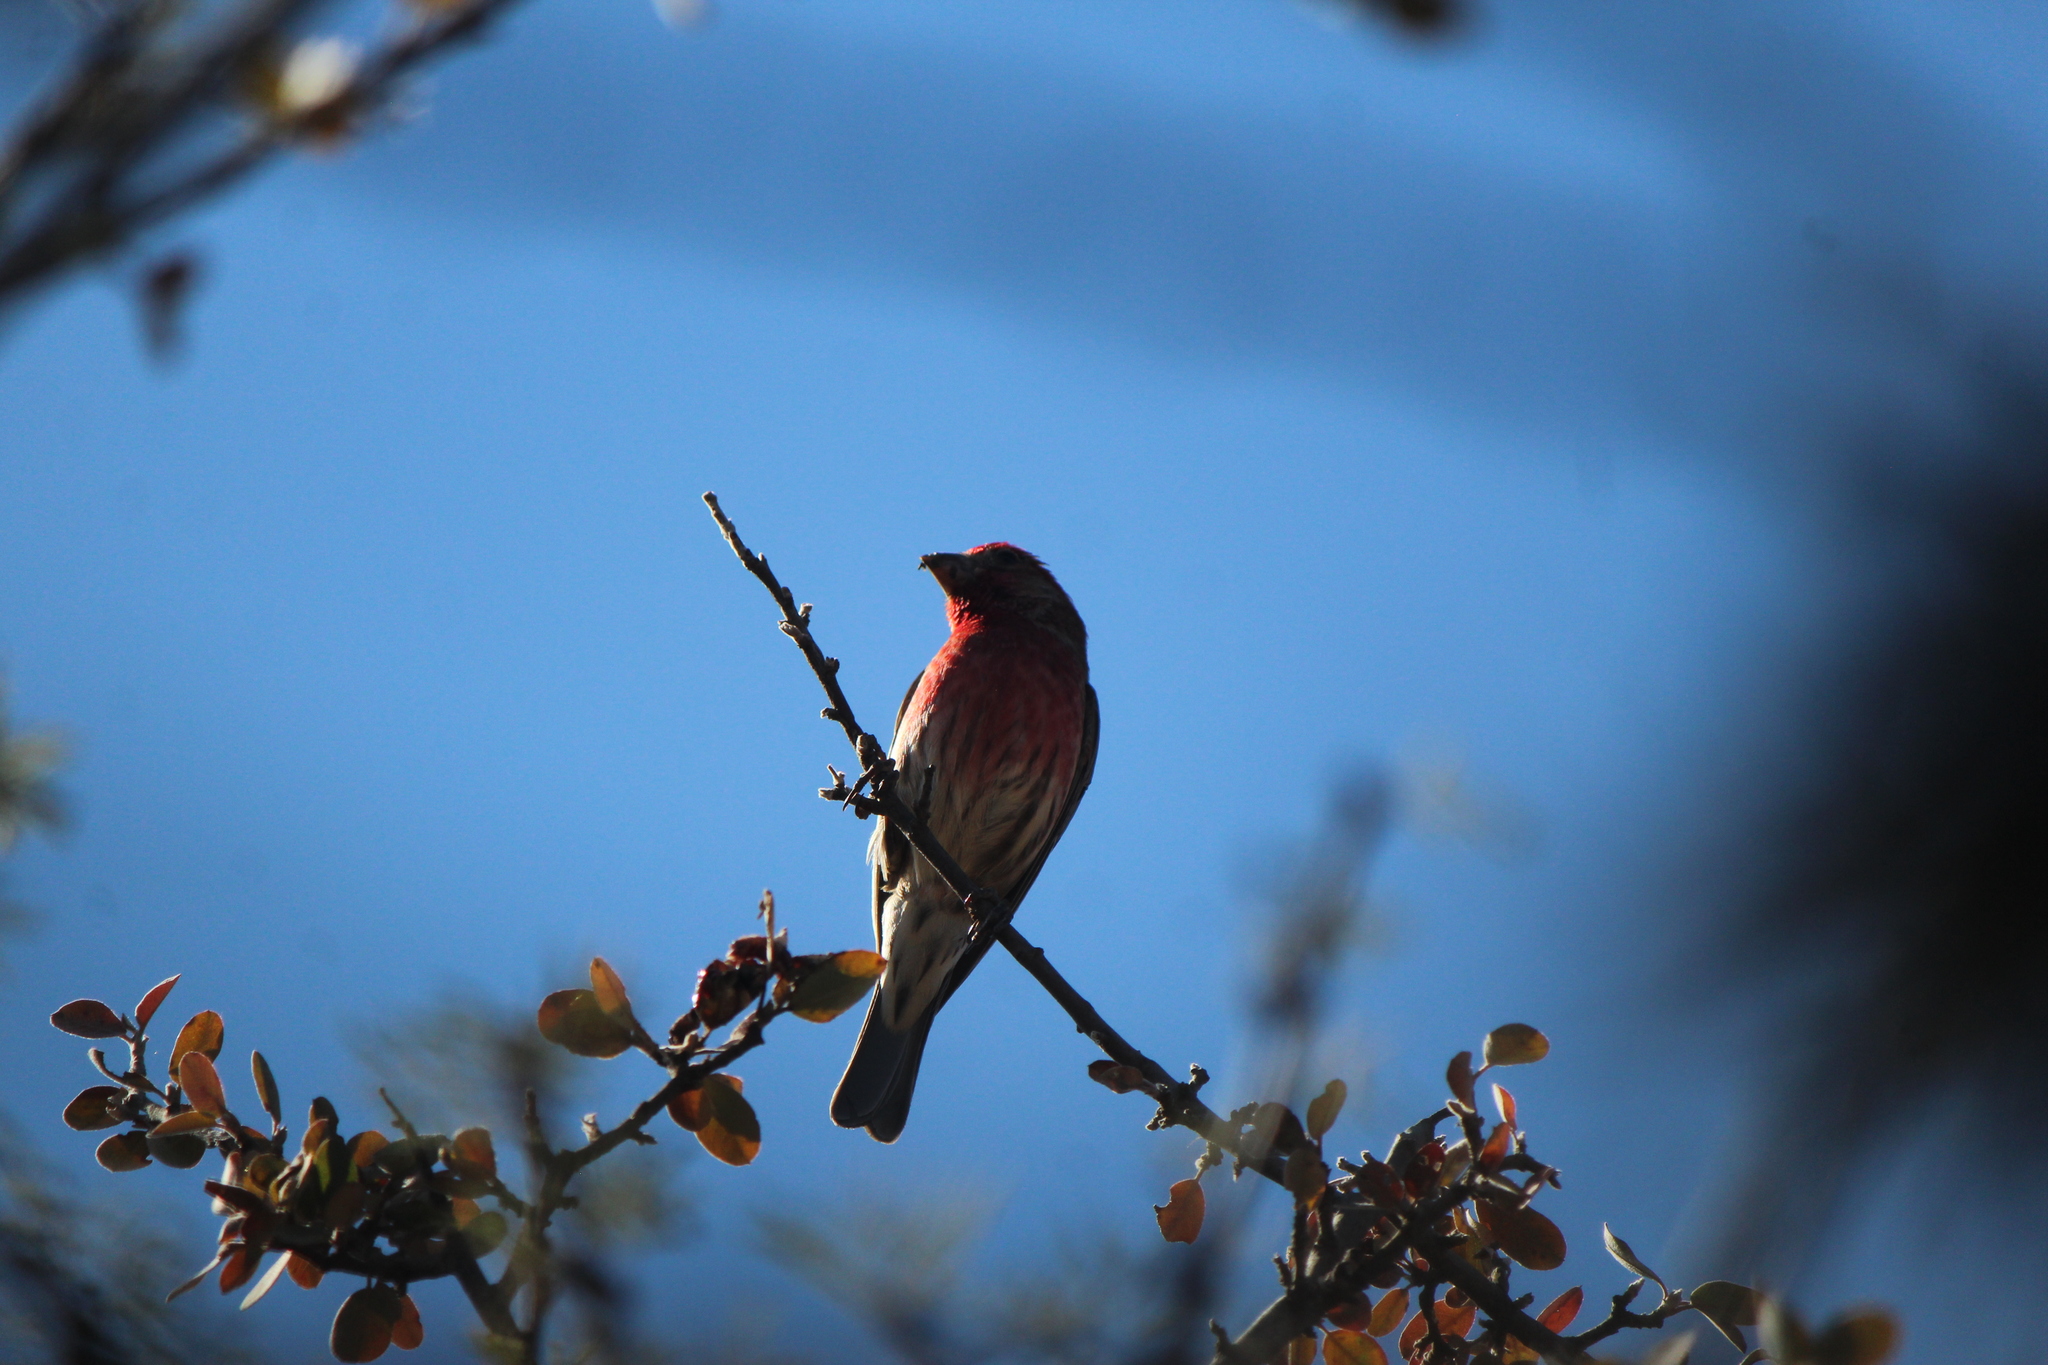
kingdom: Animalia
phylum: Chordata
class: Aves
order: Passeriformes
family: Fringillidae
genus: Haemorhous
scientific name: Haemorhous mexicanus
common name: House finch
